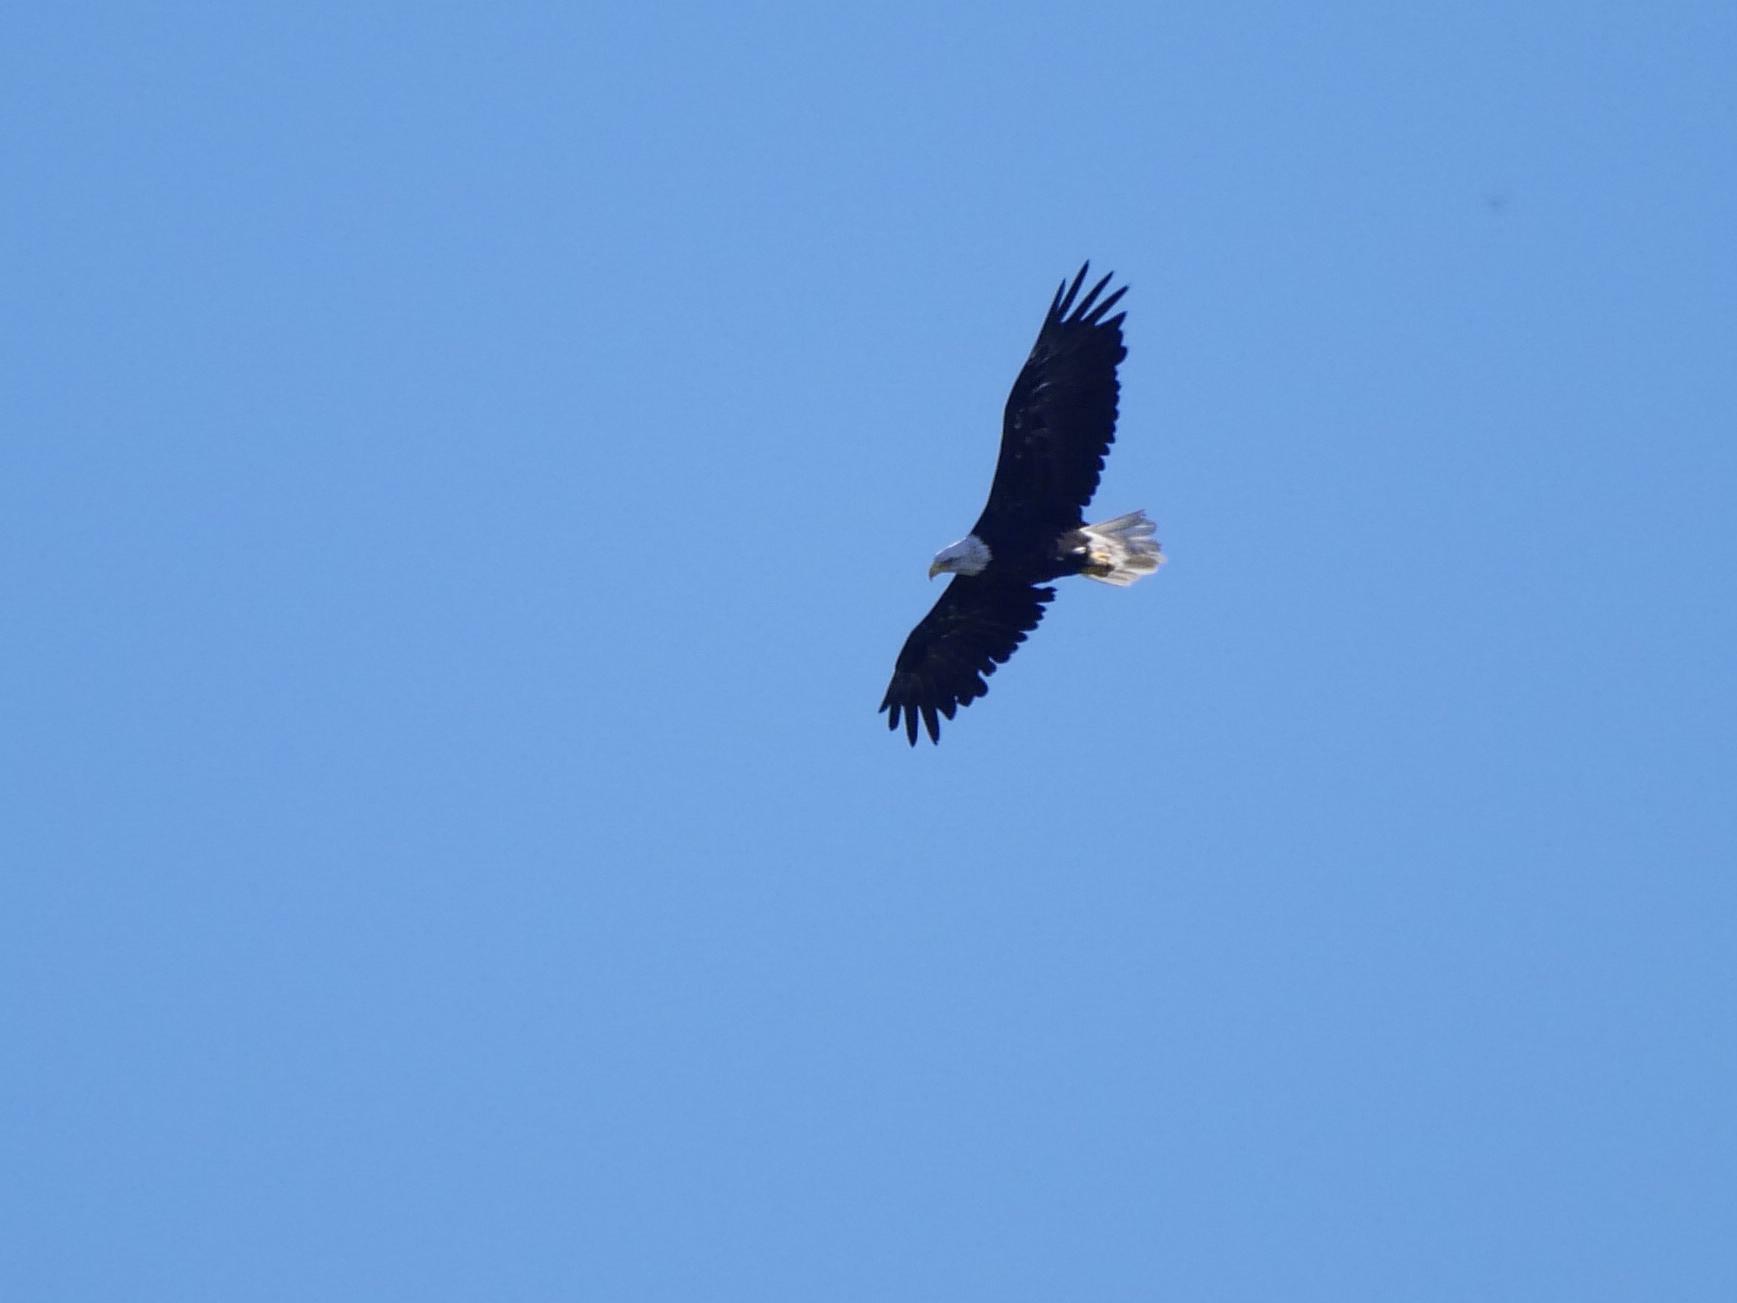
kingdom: Animalia
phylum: Chordata
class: Aves
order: Accipitriformes
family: Accipitridae
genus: Haliaeetus
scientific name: Haliaeetus leucocephalus
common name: Bald eagle
